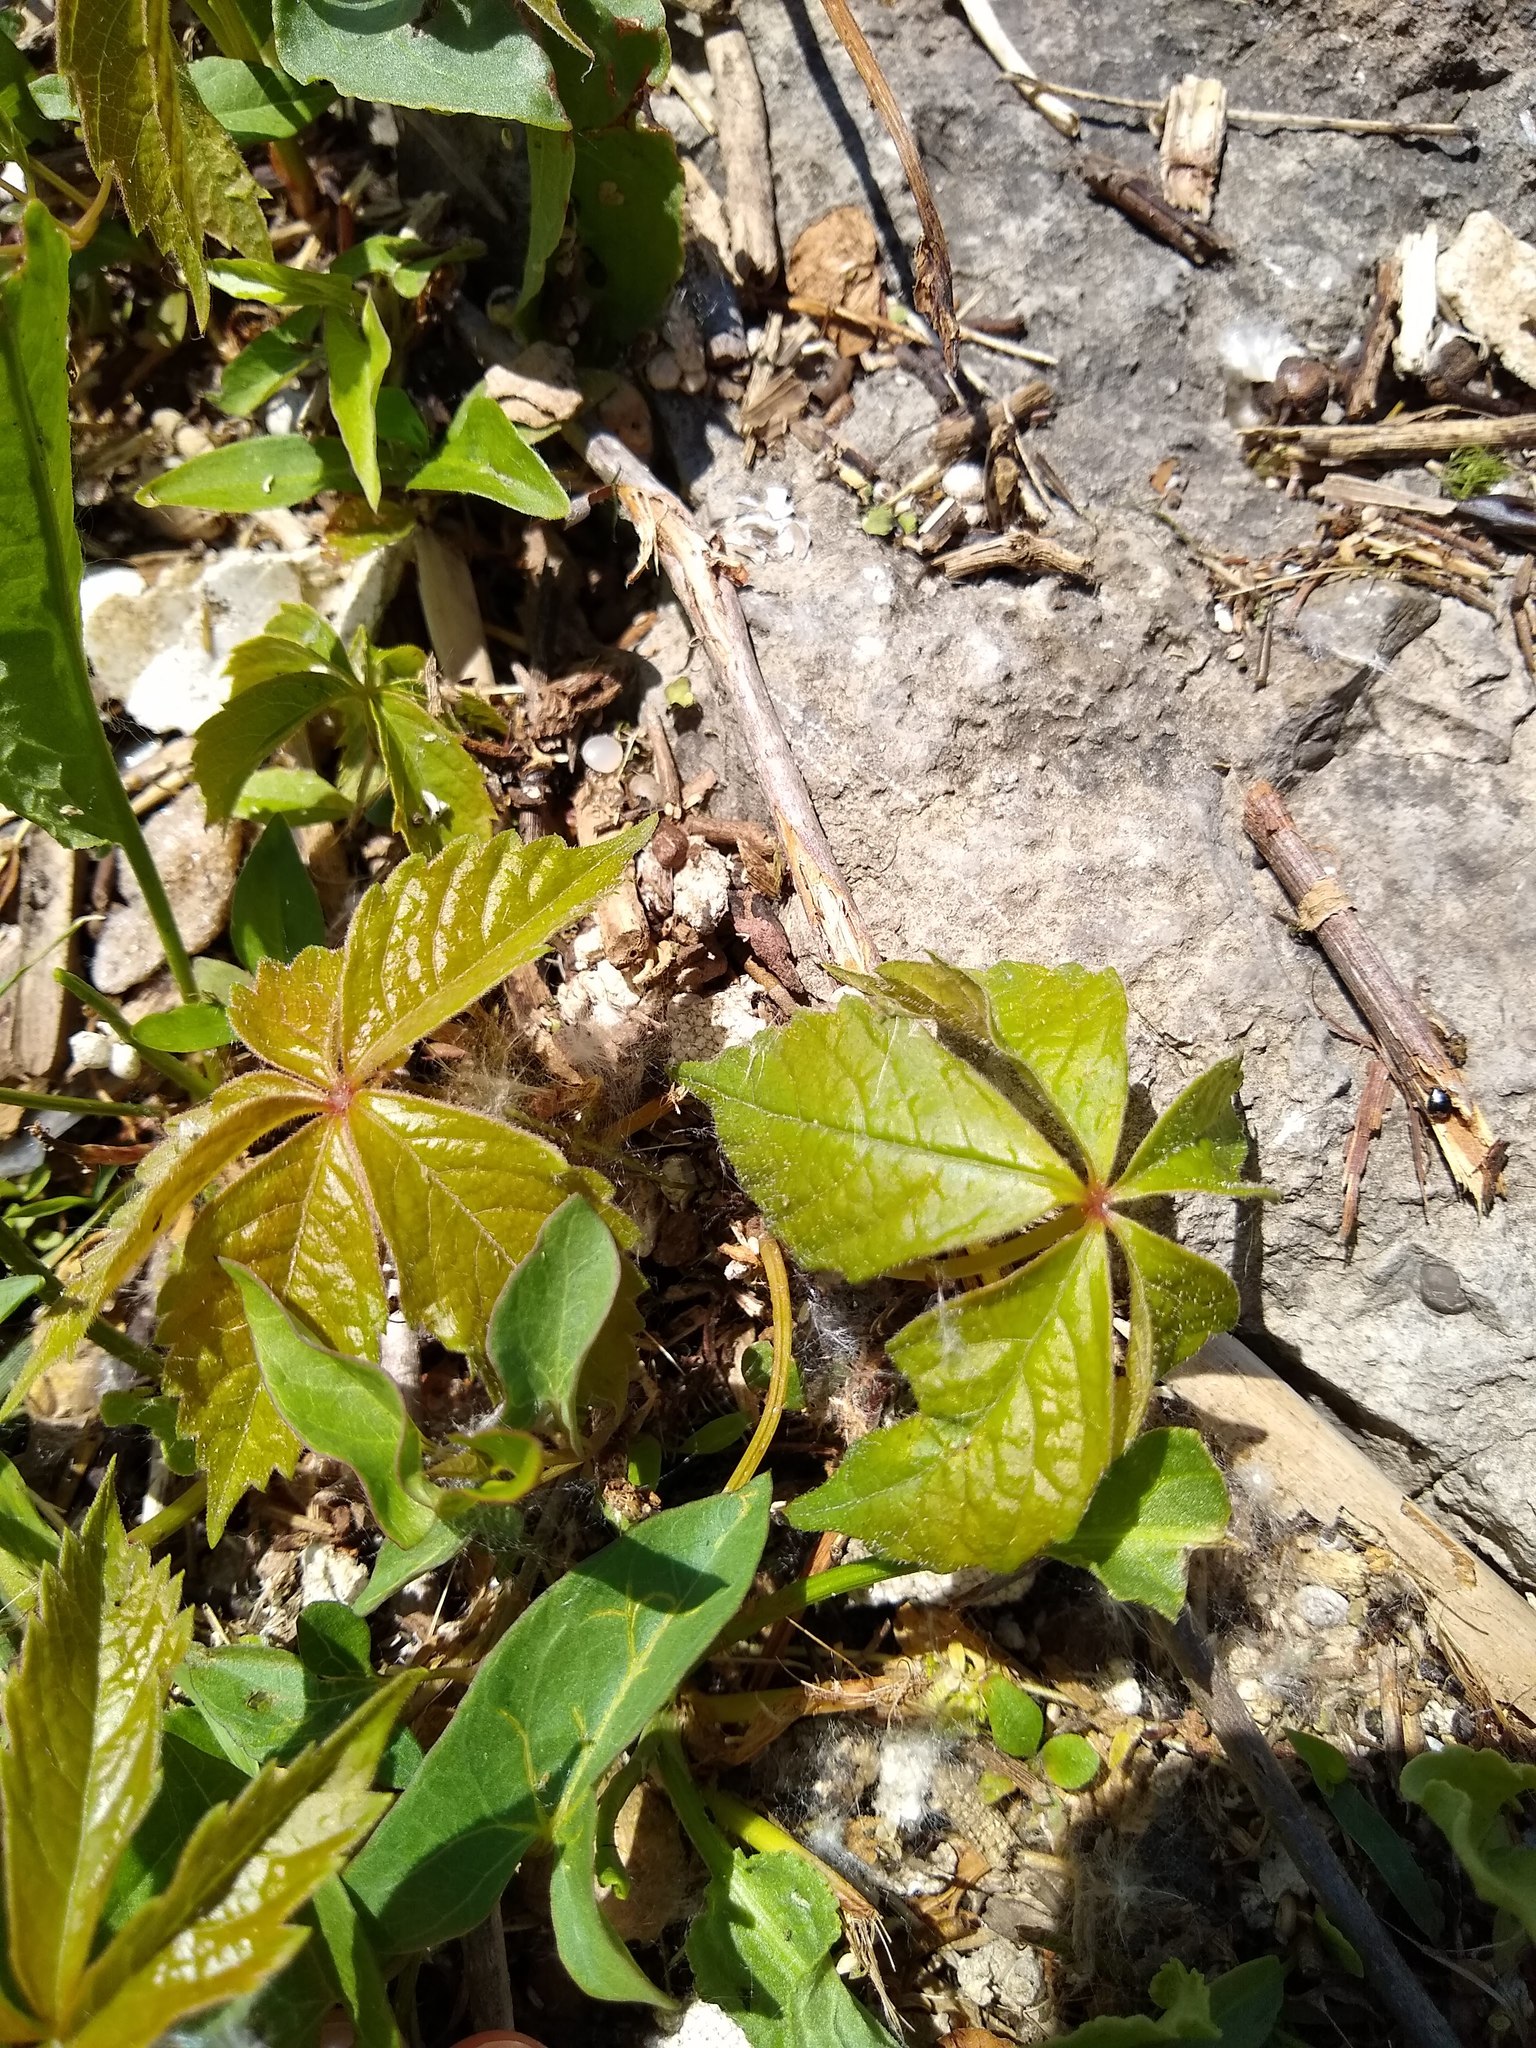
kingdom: Plantae
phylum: Tracheophyta
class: Magnoliopsida
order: Vitales
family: Vitaceae
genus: Parthenocissus
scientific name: Parthenocissus quinquefolia
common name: Virginia-creeper
